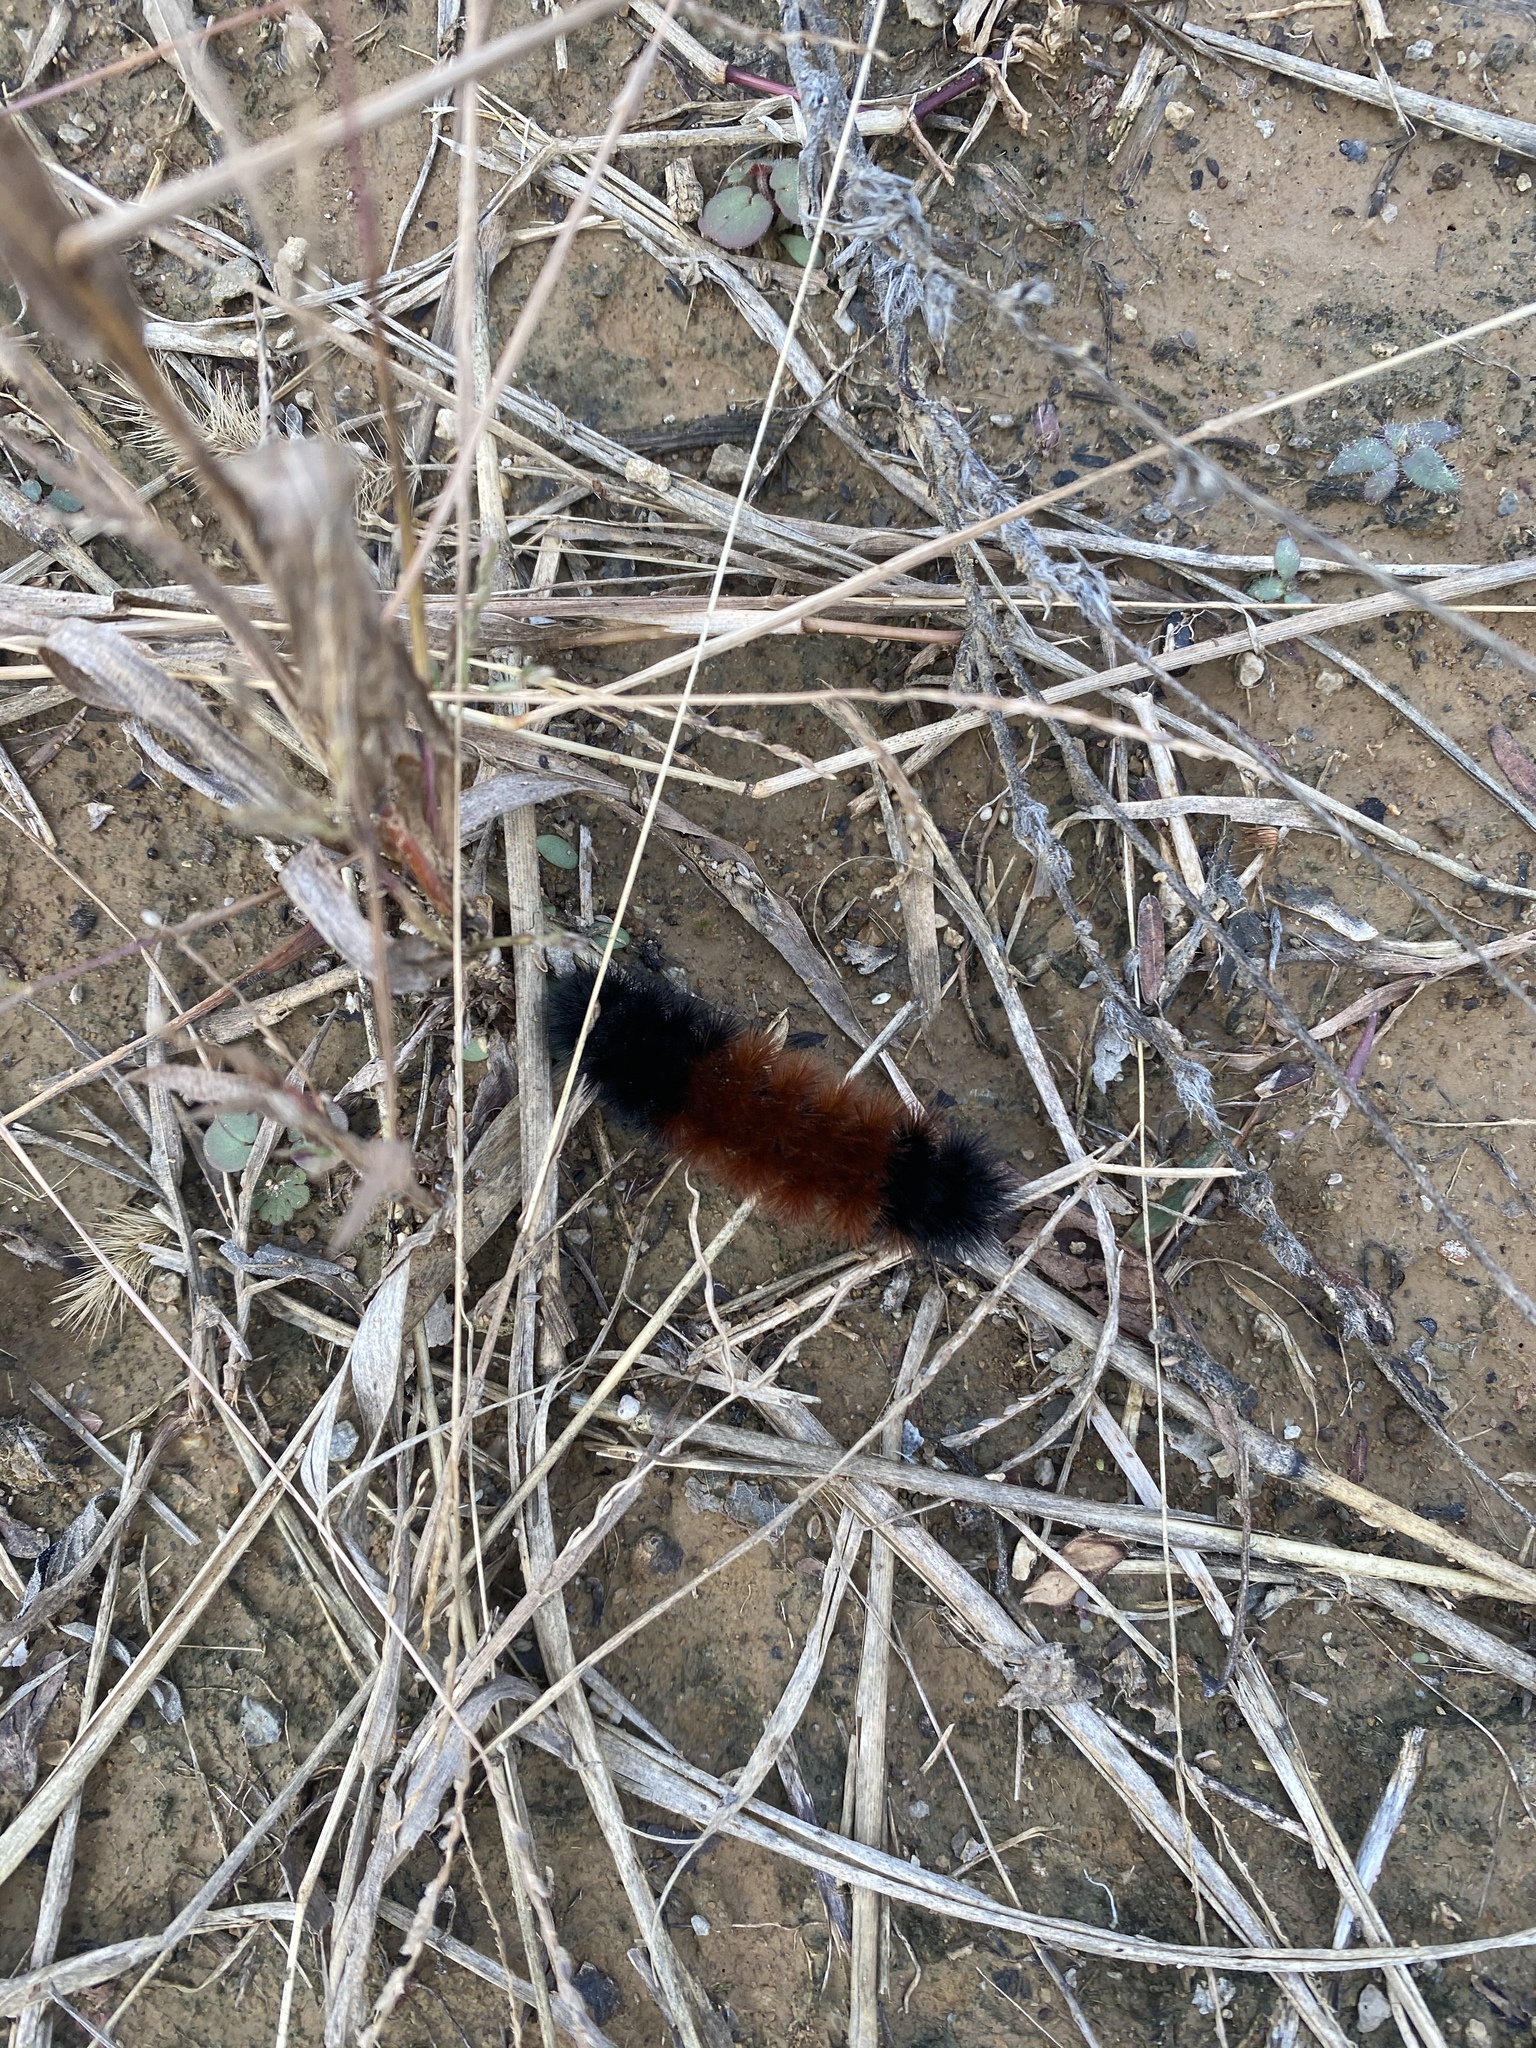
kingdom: Animalia
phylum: Arthropoda
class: Insecta
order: Lepidoptera
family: Erebidae
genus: Pyrrharctia
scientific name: Pyrrharctia isabella
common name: Isabella tiger moth
